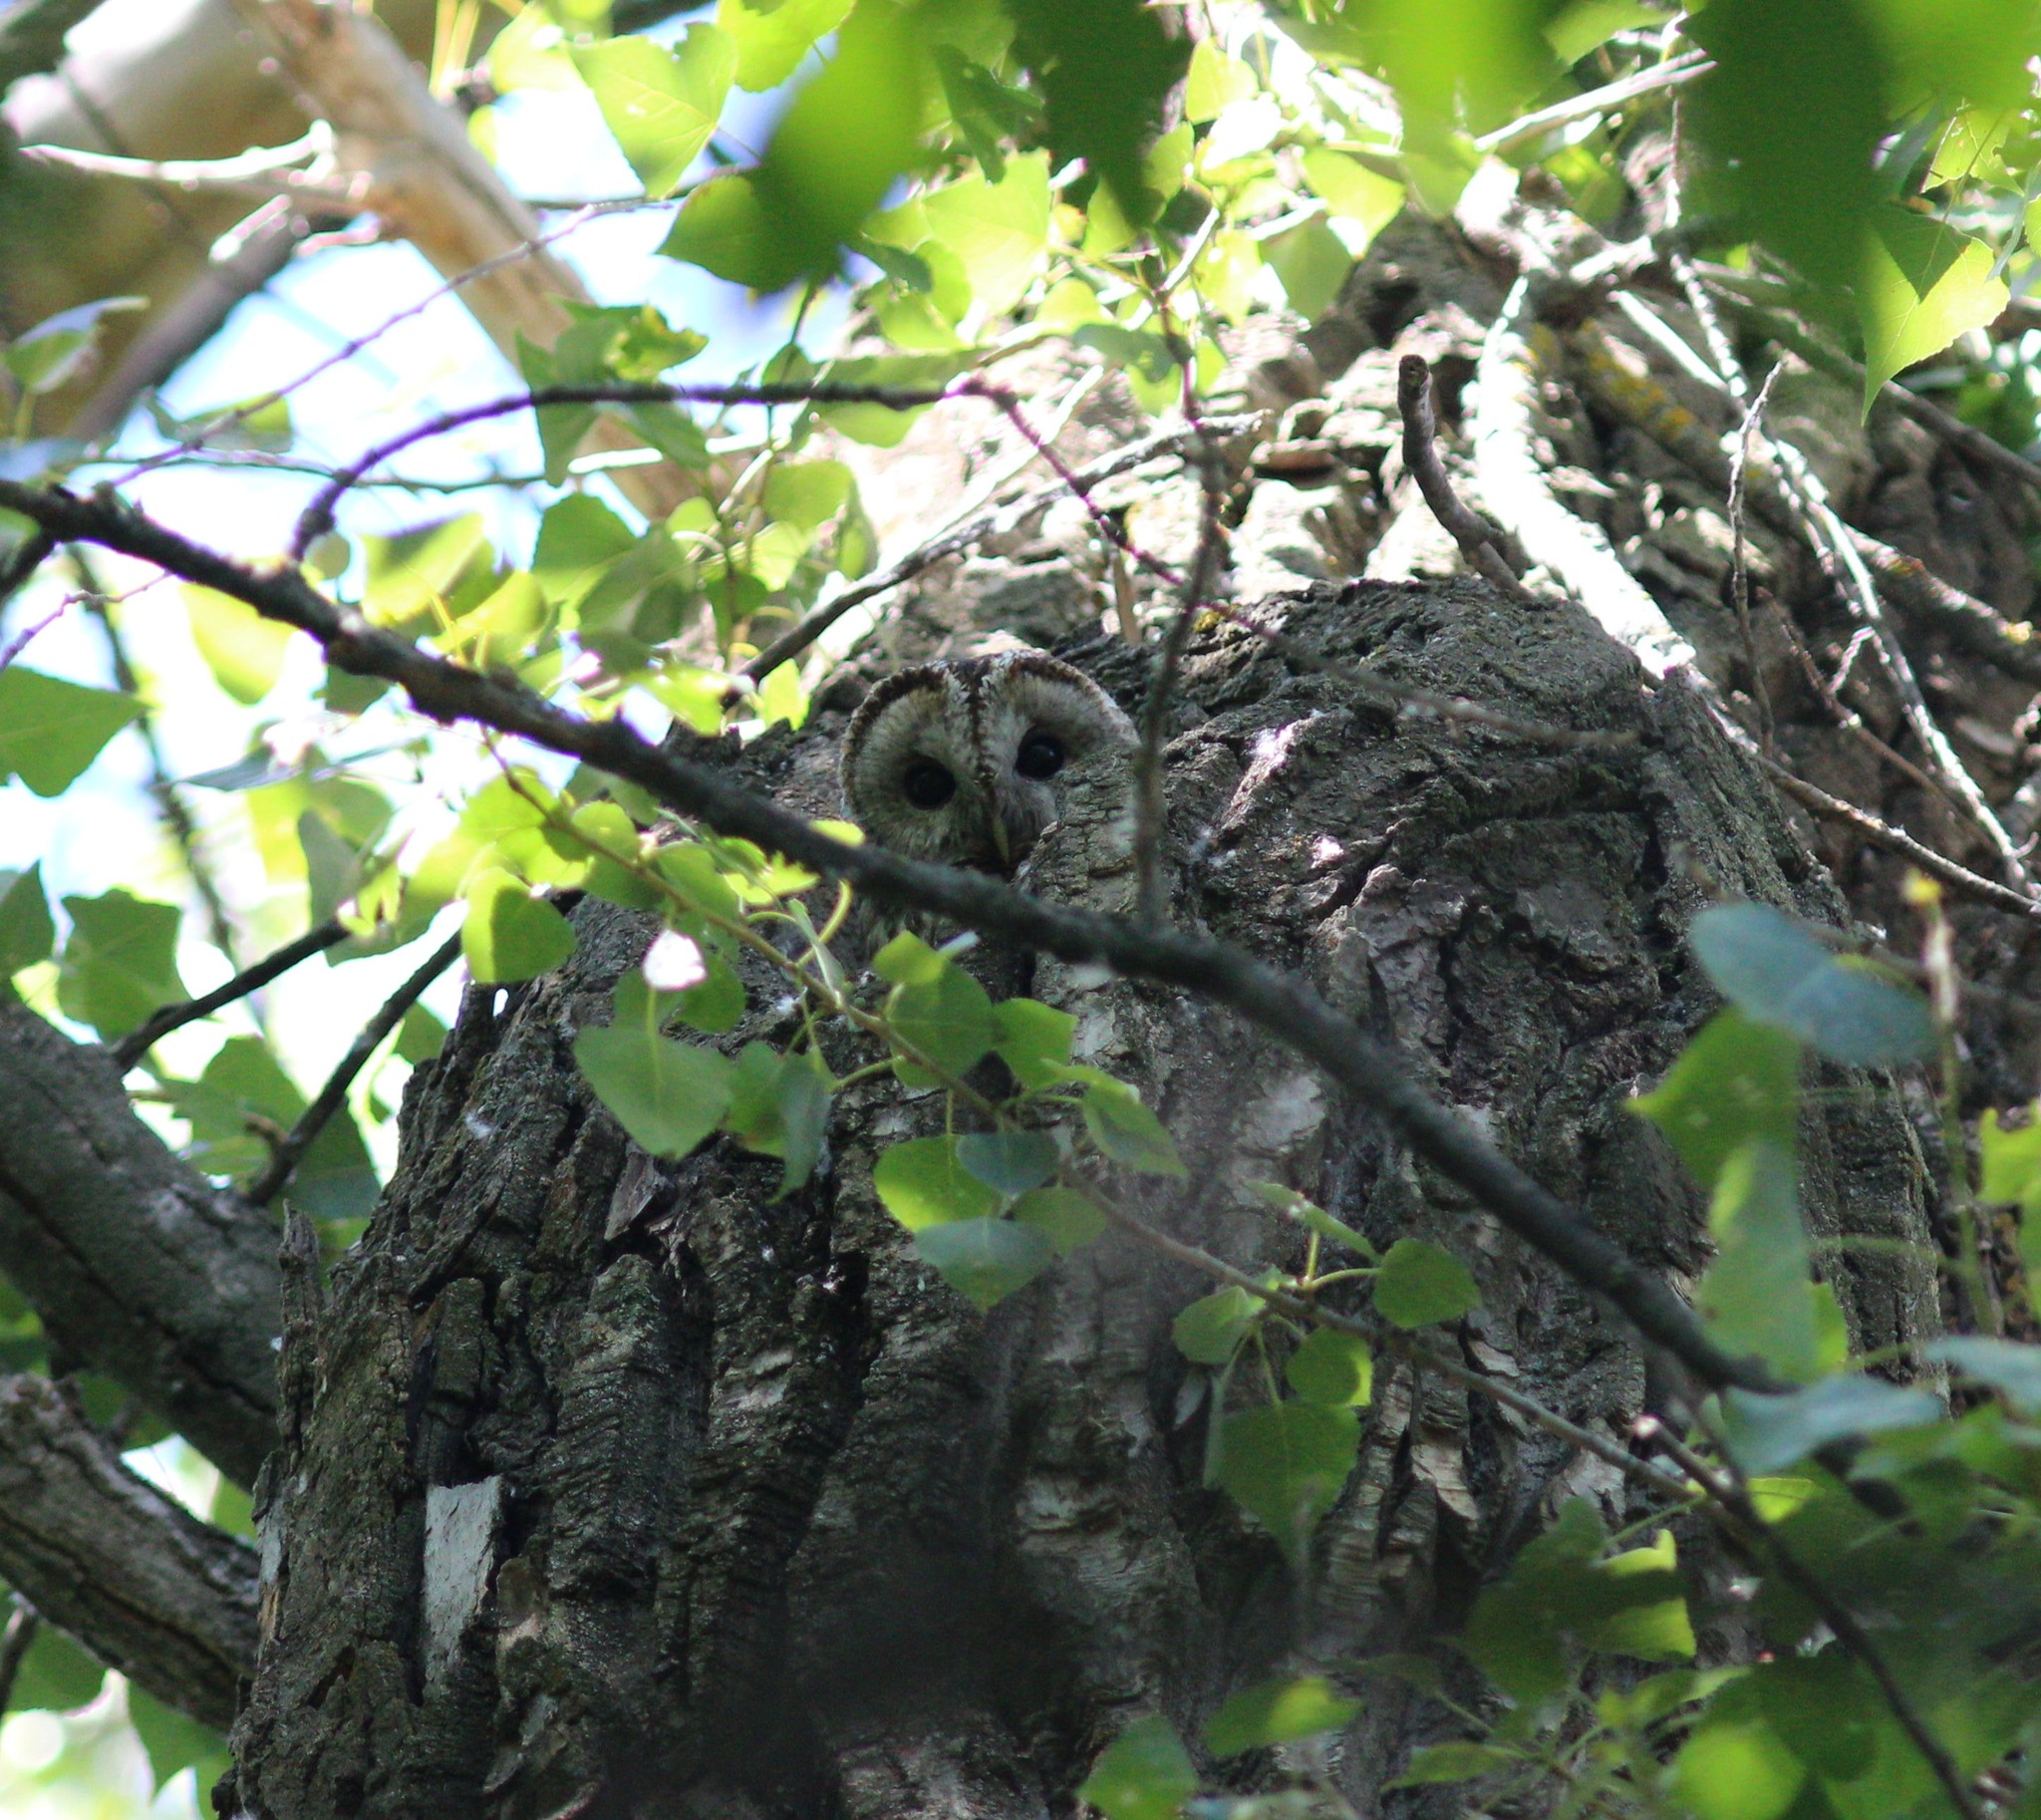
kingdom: Animalia
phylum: Chordata
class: Aves
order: Strigiformes
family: Strigidae
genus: Strix
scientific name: Strix aluco
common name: Tawny owl
